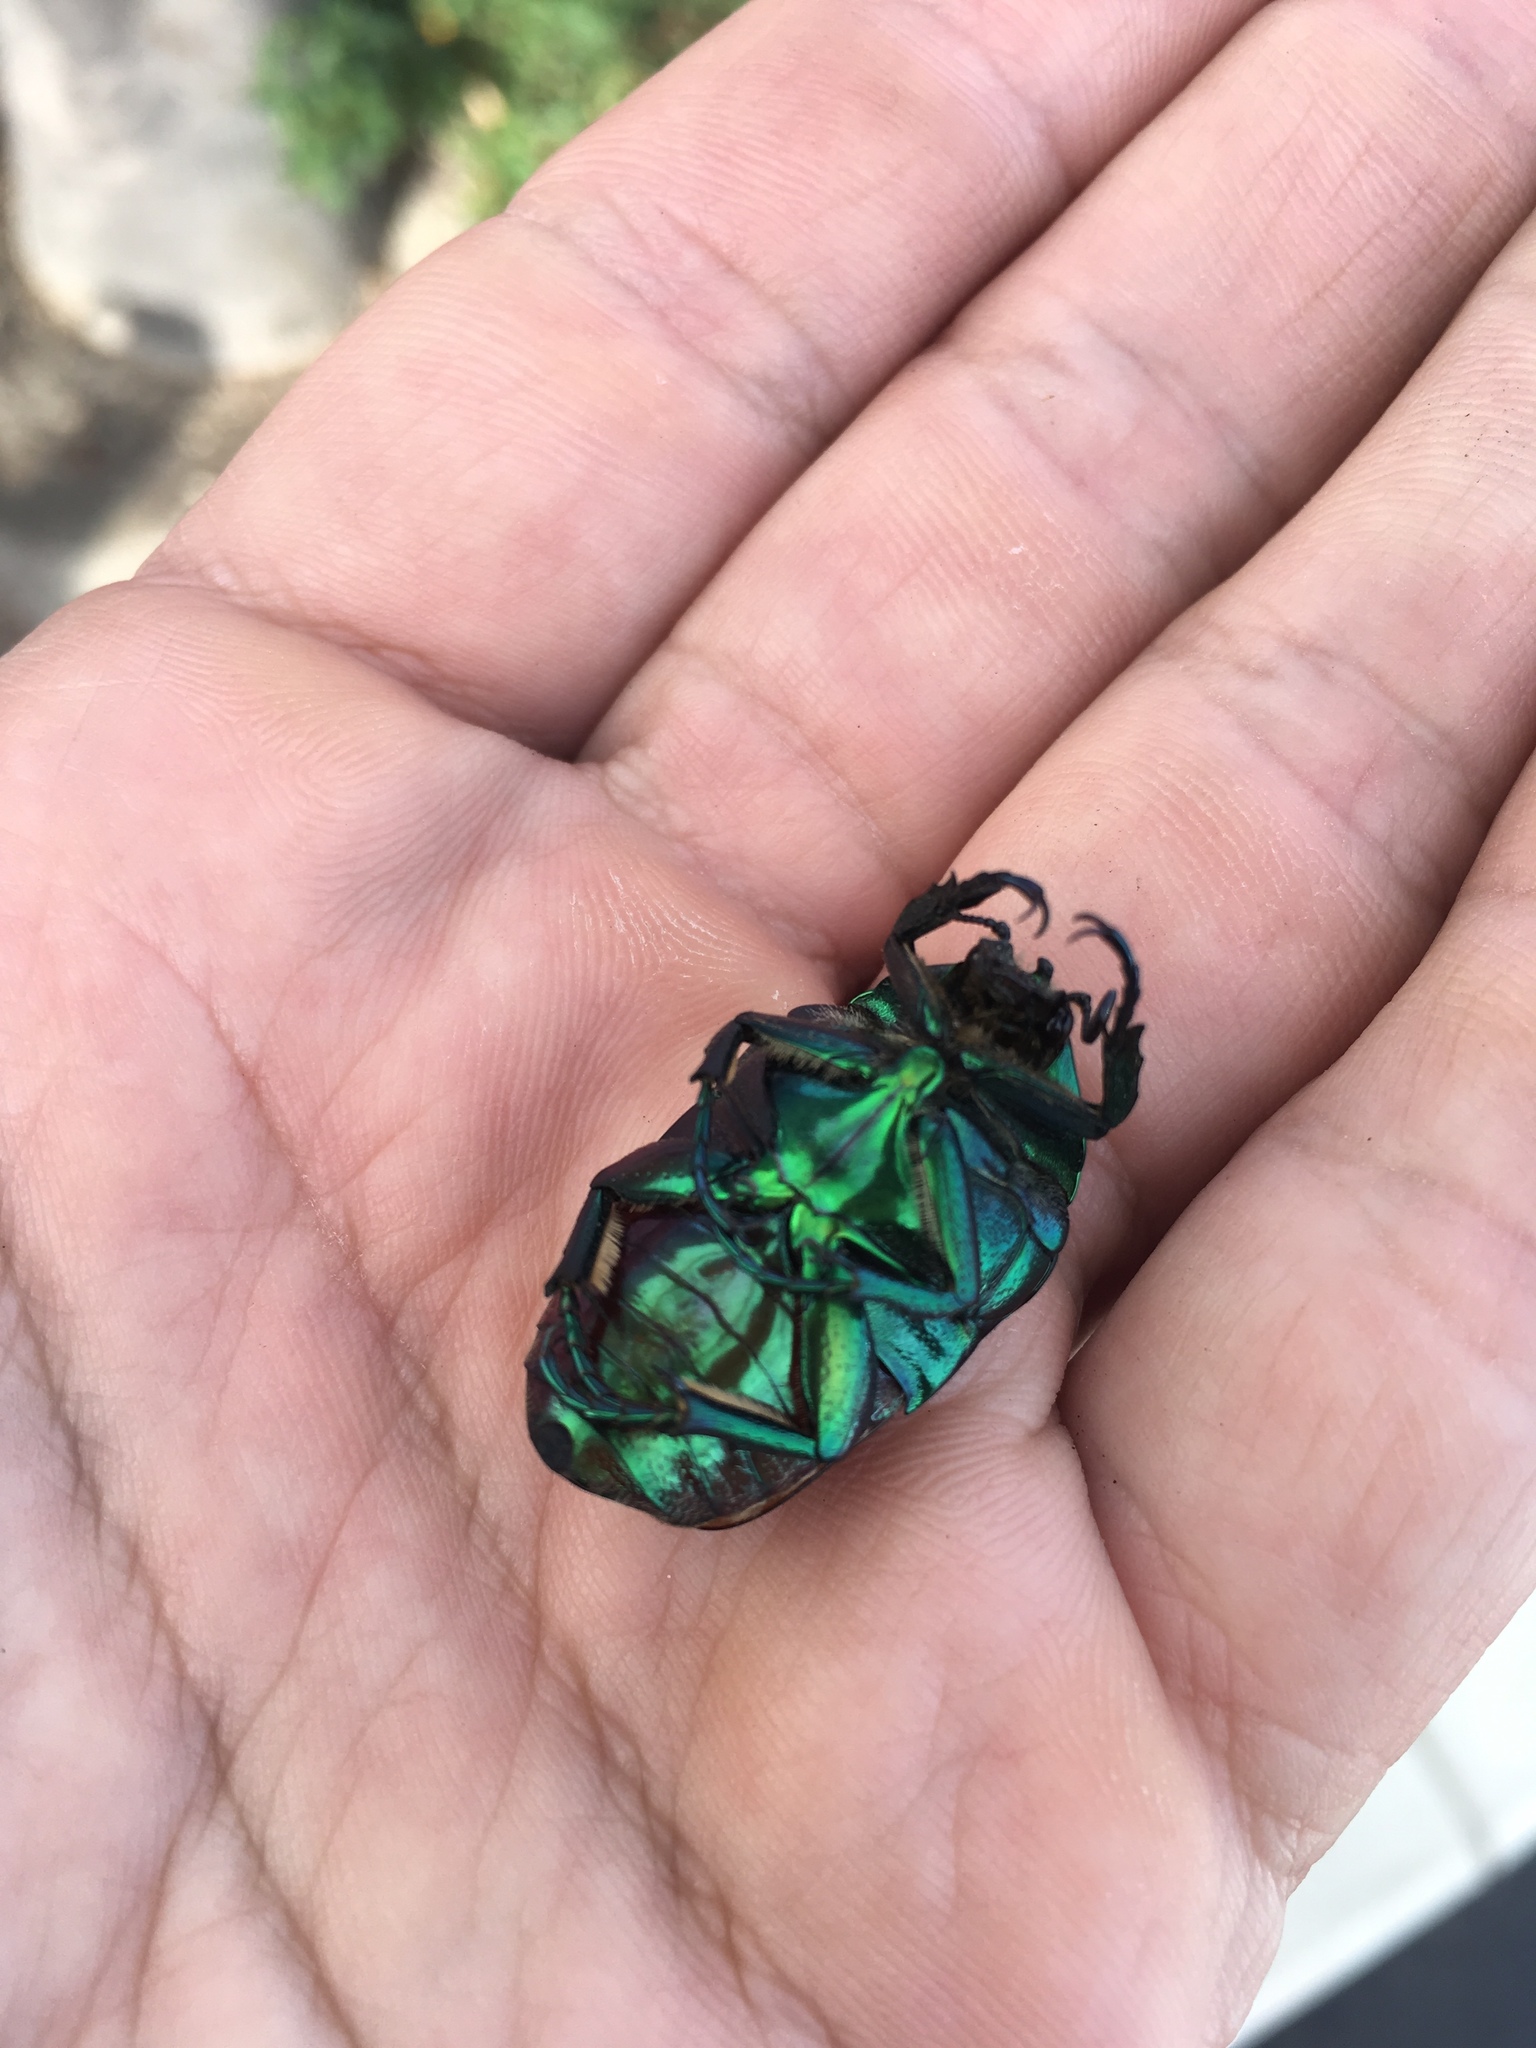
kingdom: Animalia
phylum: Arthropoda
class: Insecta
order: Coleoptera
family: Scarabaeidae
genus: Cotinis
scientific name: Cotinis mutabilis
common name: Figeater beetle
